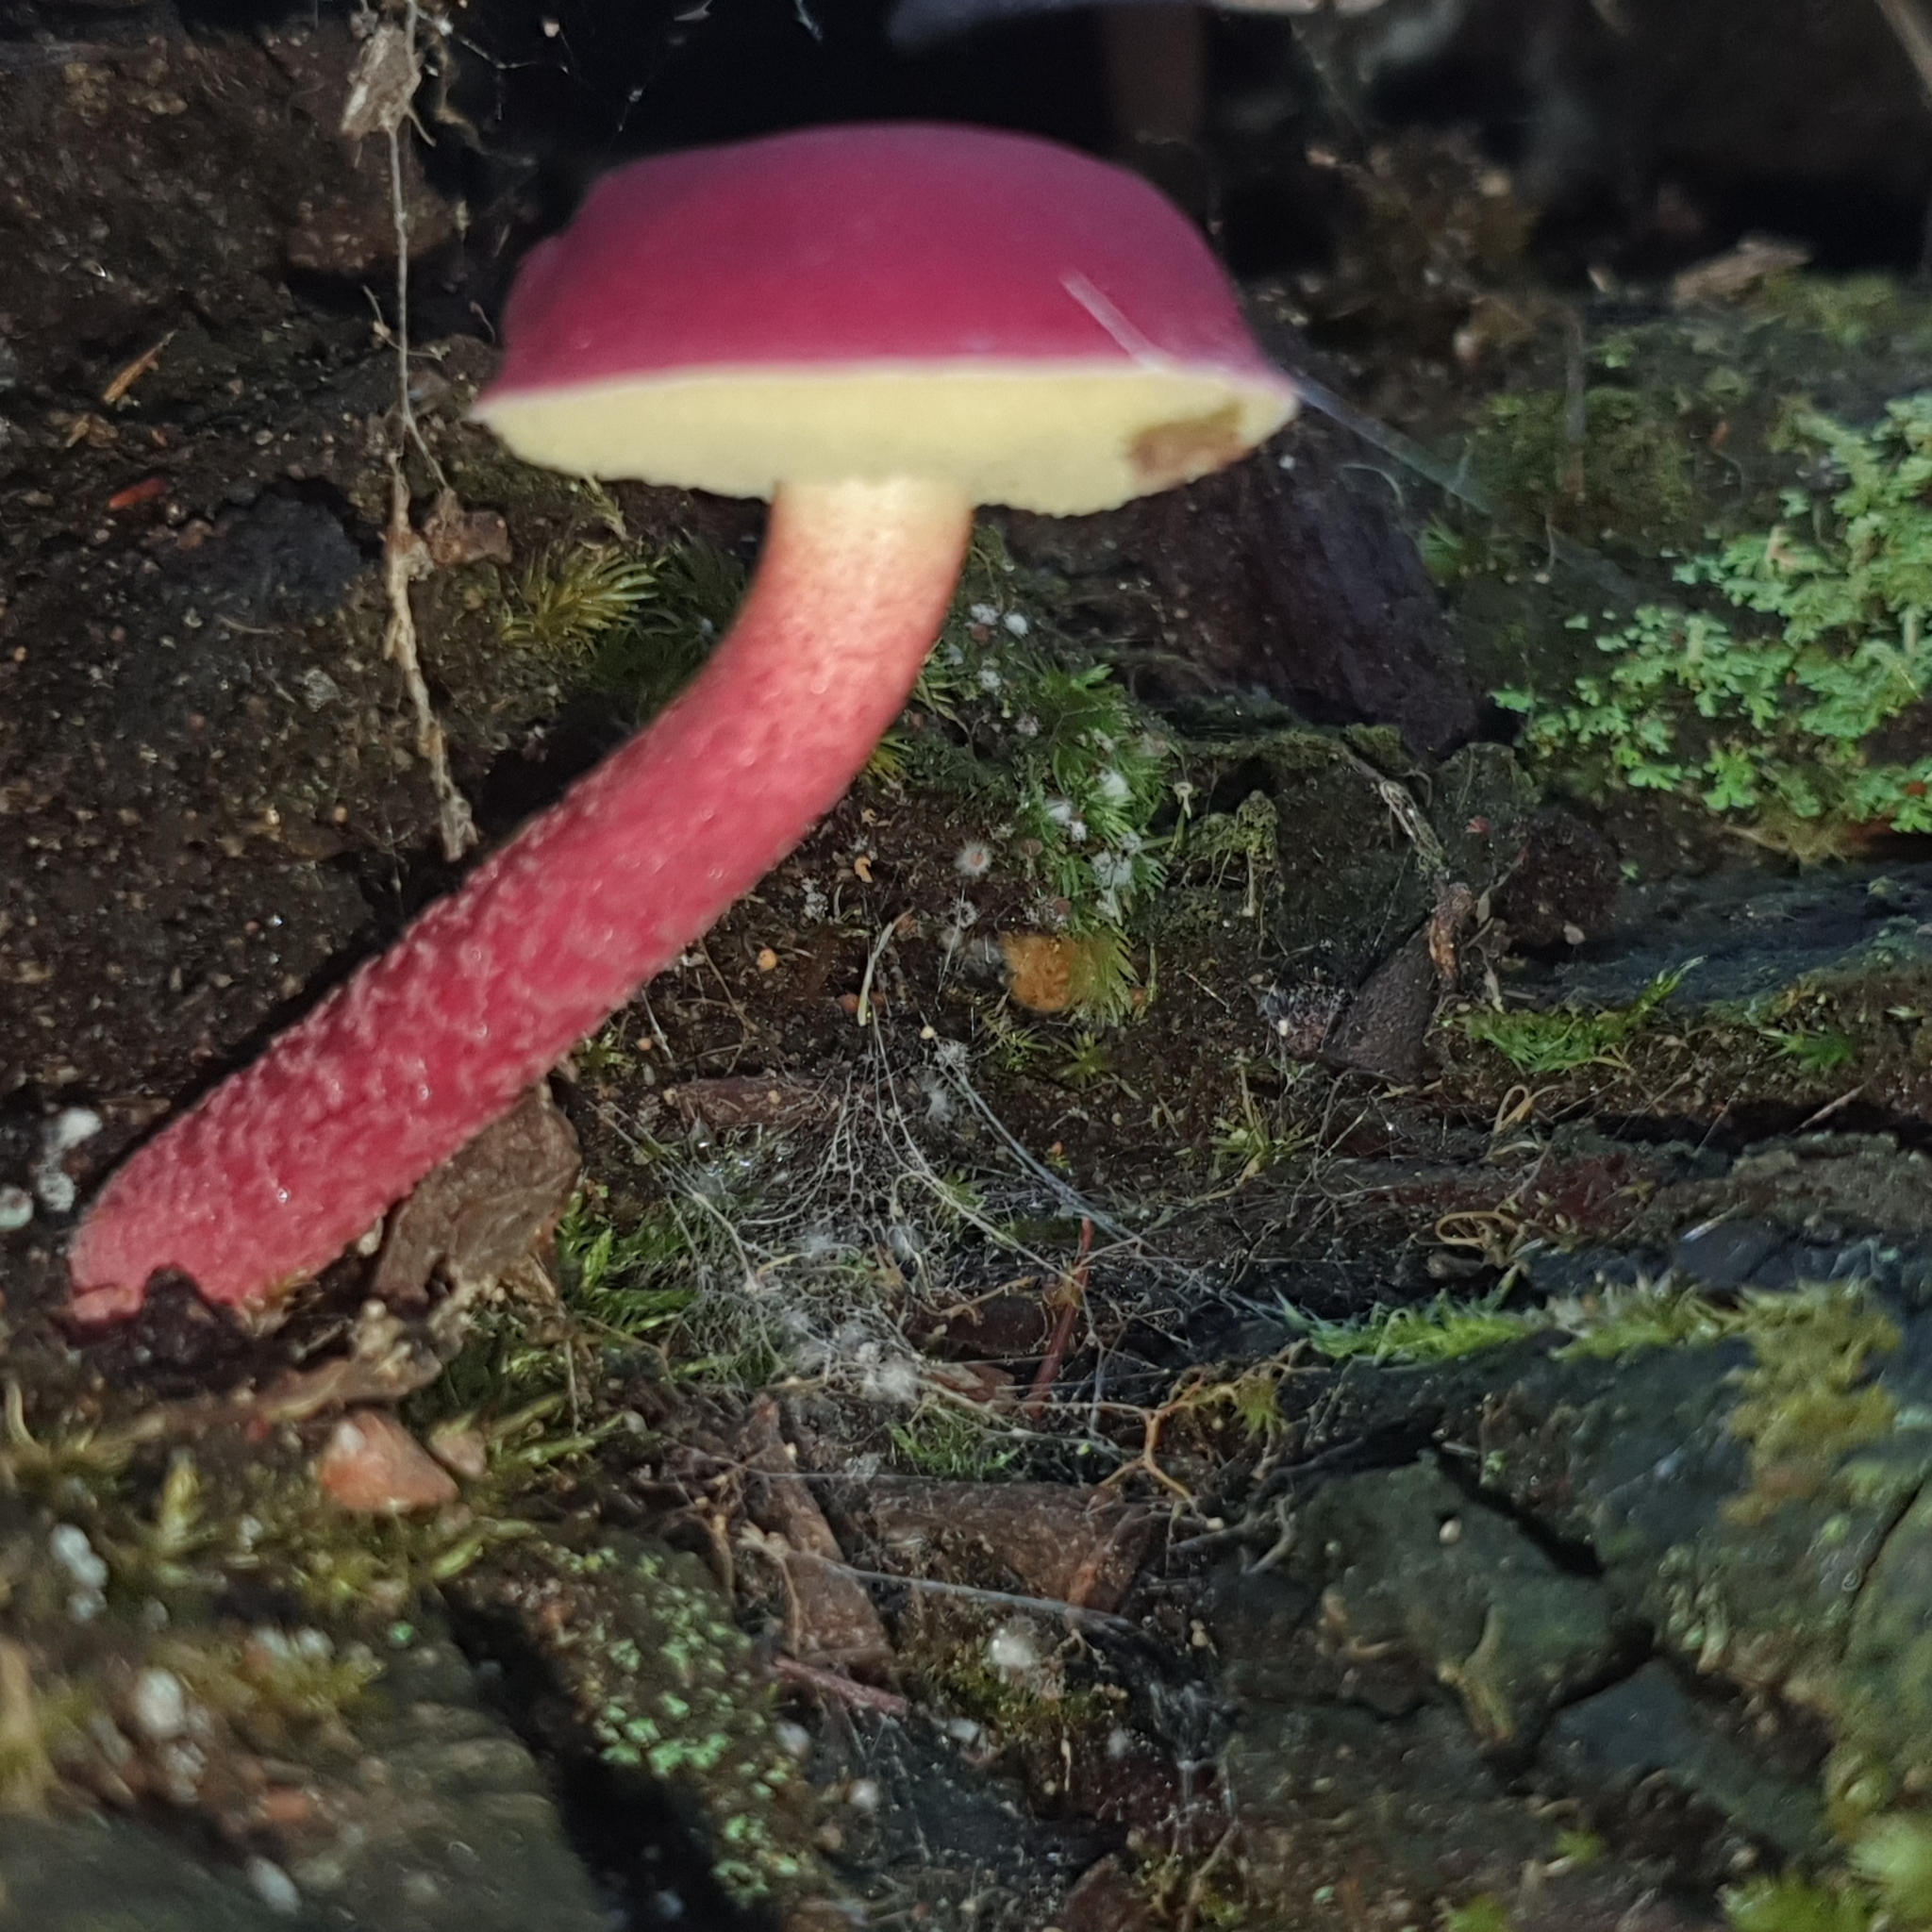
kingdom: Fungi
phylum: Basidiomycota
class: Agaricomycetes
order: Boletales
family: Boletaceae
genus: Boletellus
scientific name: Boletellus obscurecoccineus
